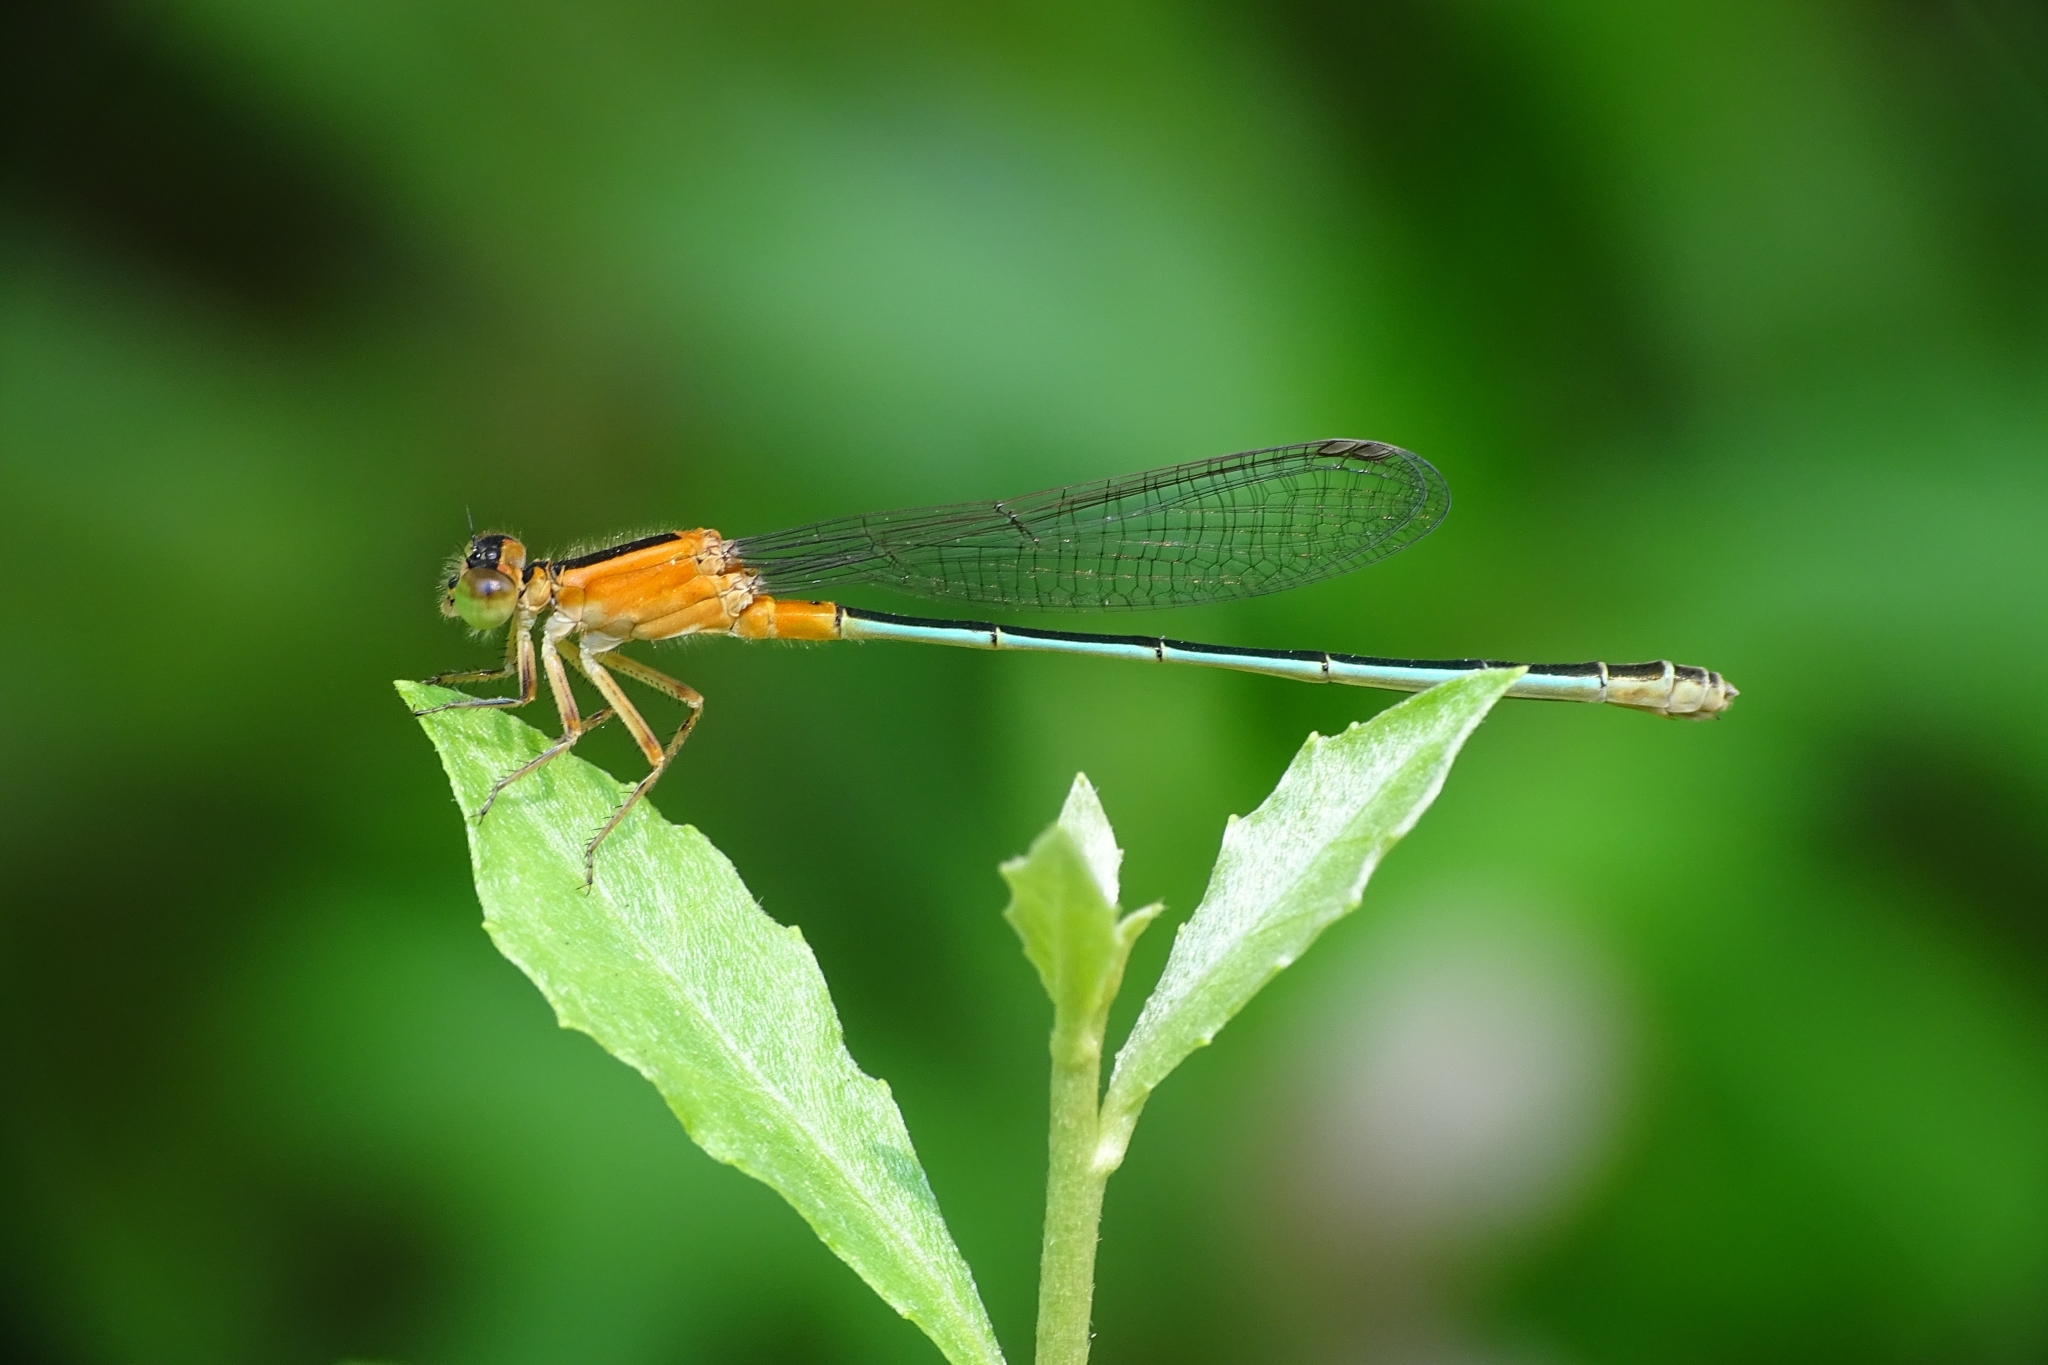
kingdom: Animalia
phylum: Arthropoda
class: Insecta
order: Odonata
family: Coenagrionidae
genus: Ischnura
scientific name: Ischnura senegalensis
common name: Tropical bluetail
